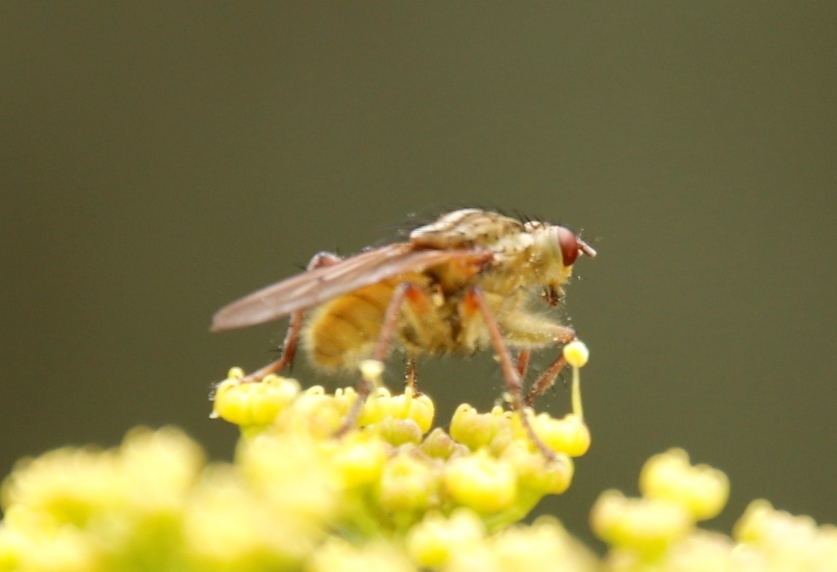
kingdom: Plantae
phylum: Tracheophyta
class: Magnoliopsida
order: Apiales
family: Apiaceae
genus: Notobubon
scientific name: Notobubon galbanum
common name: Blisterbush
